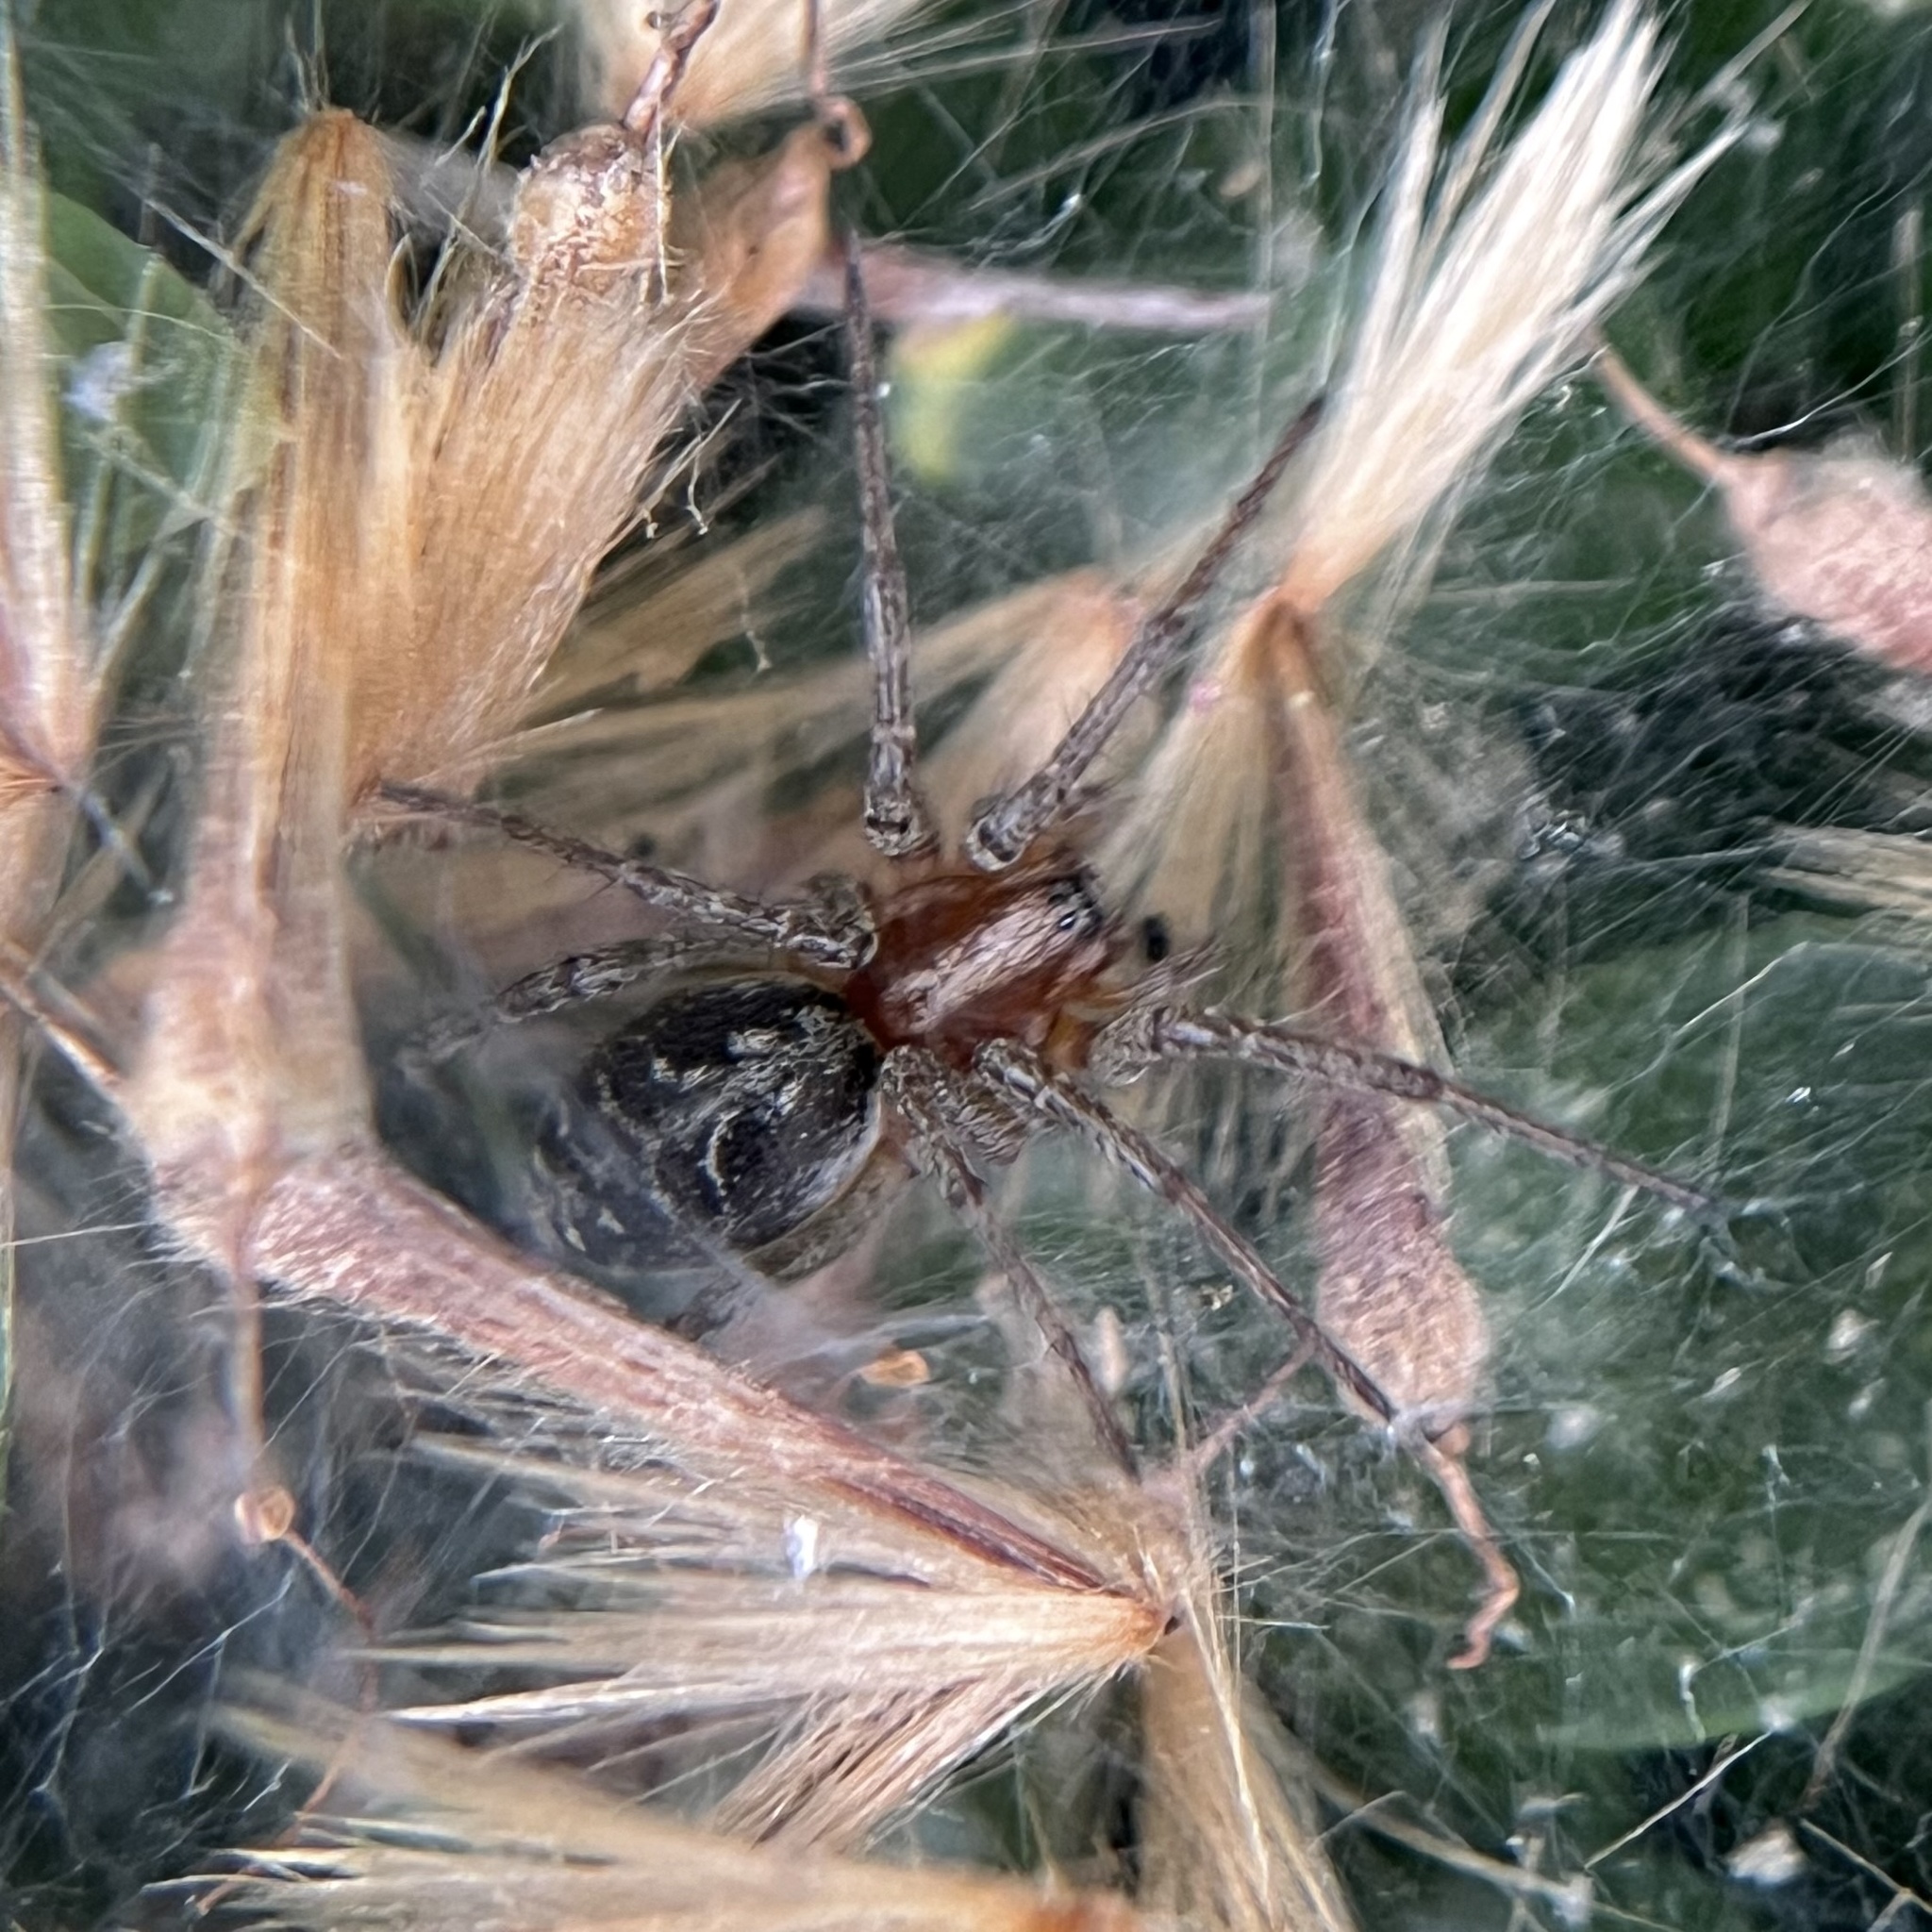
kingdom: Animalia
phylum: Arthropoda
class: Arachnida
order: Araneae
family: Agelenidae
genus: Agelena
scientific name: Agelena labyrinthica
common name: Labyrinth spider
